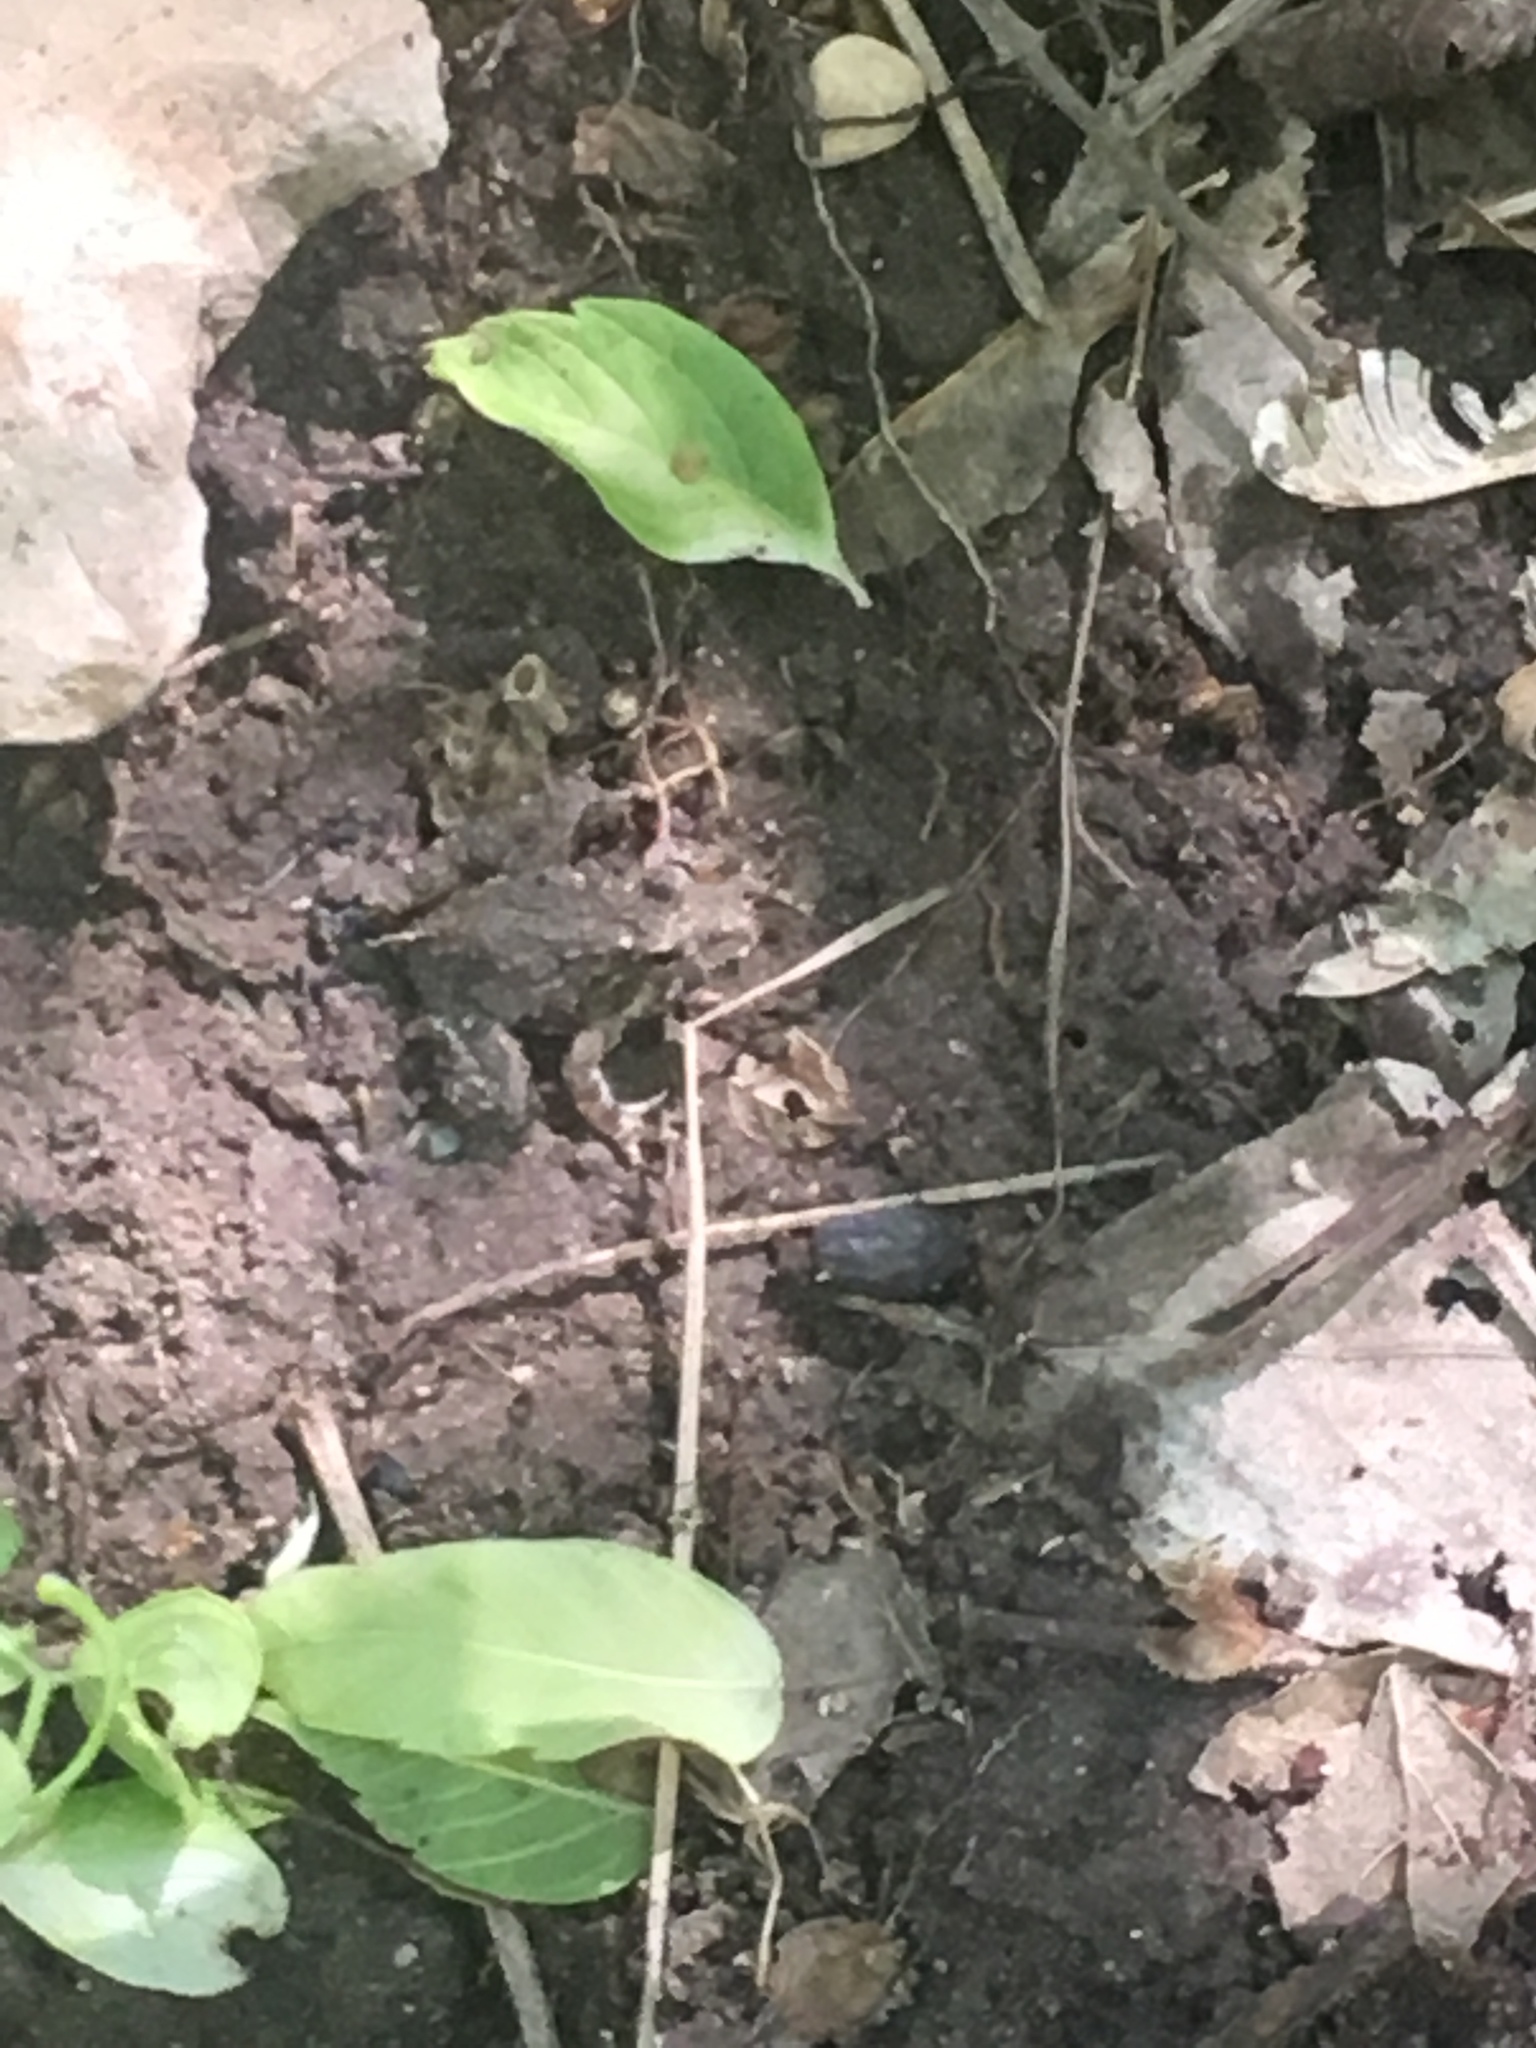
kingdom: Animalia
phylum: Chordata
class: Amphibia
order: Anura
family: Hylidae
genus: Acris
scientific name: Acris blanchardi
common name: Blanchard's cricket frog
